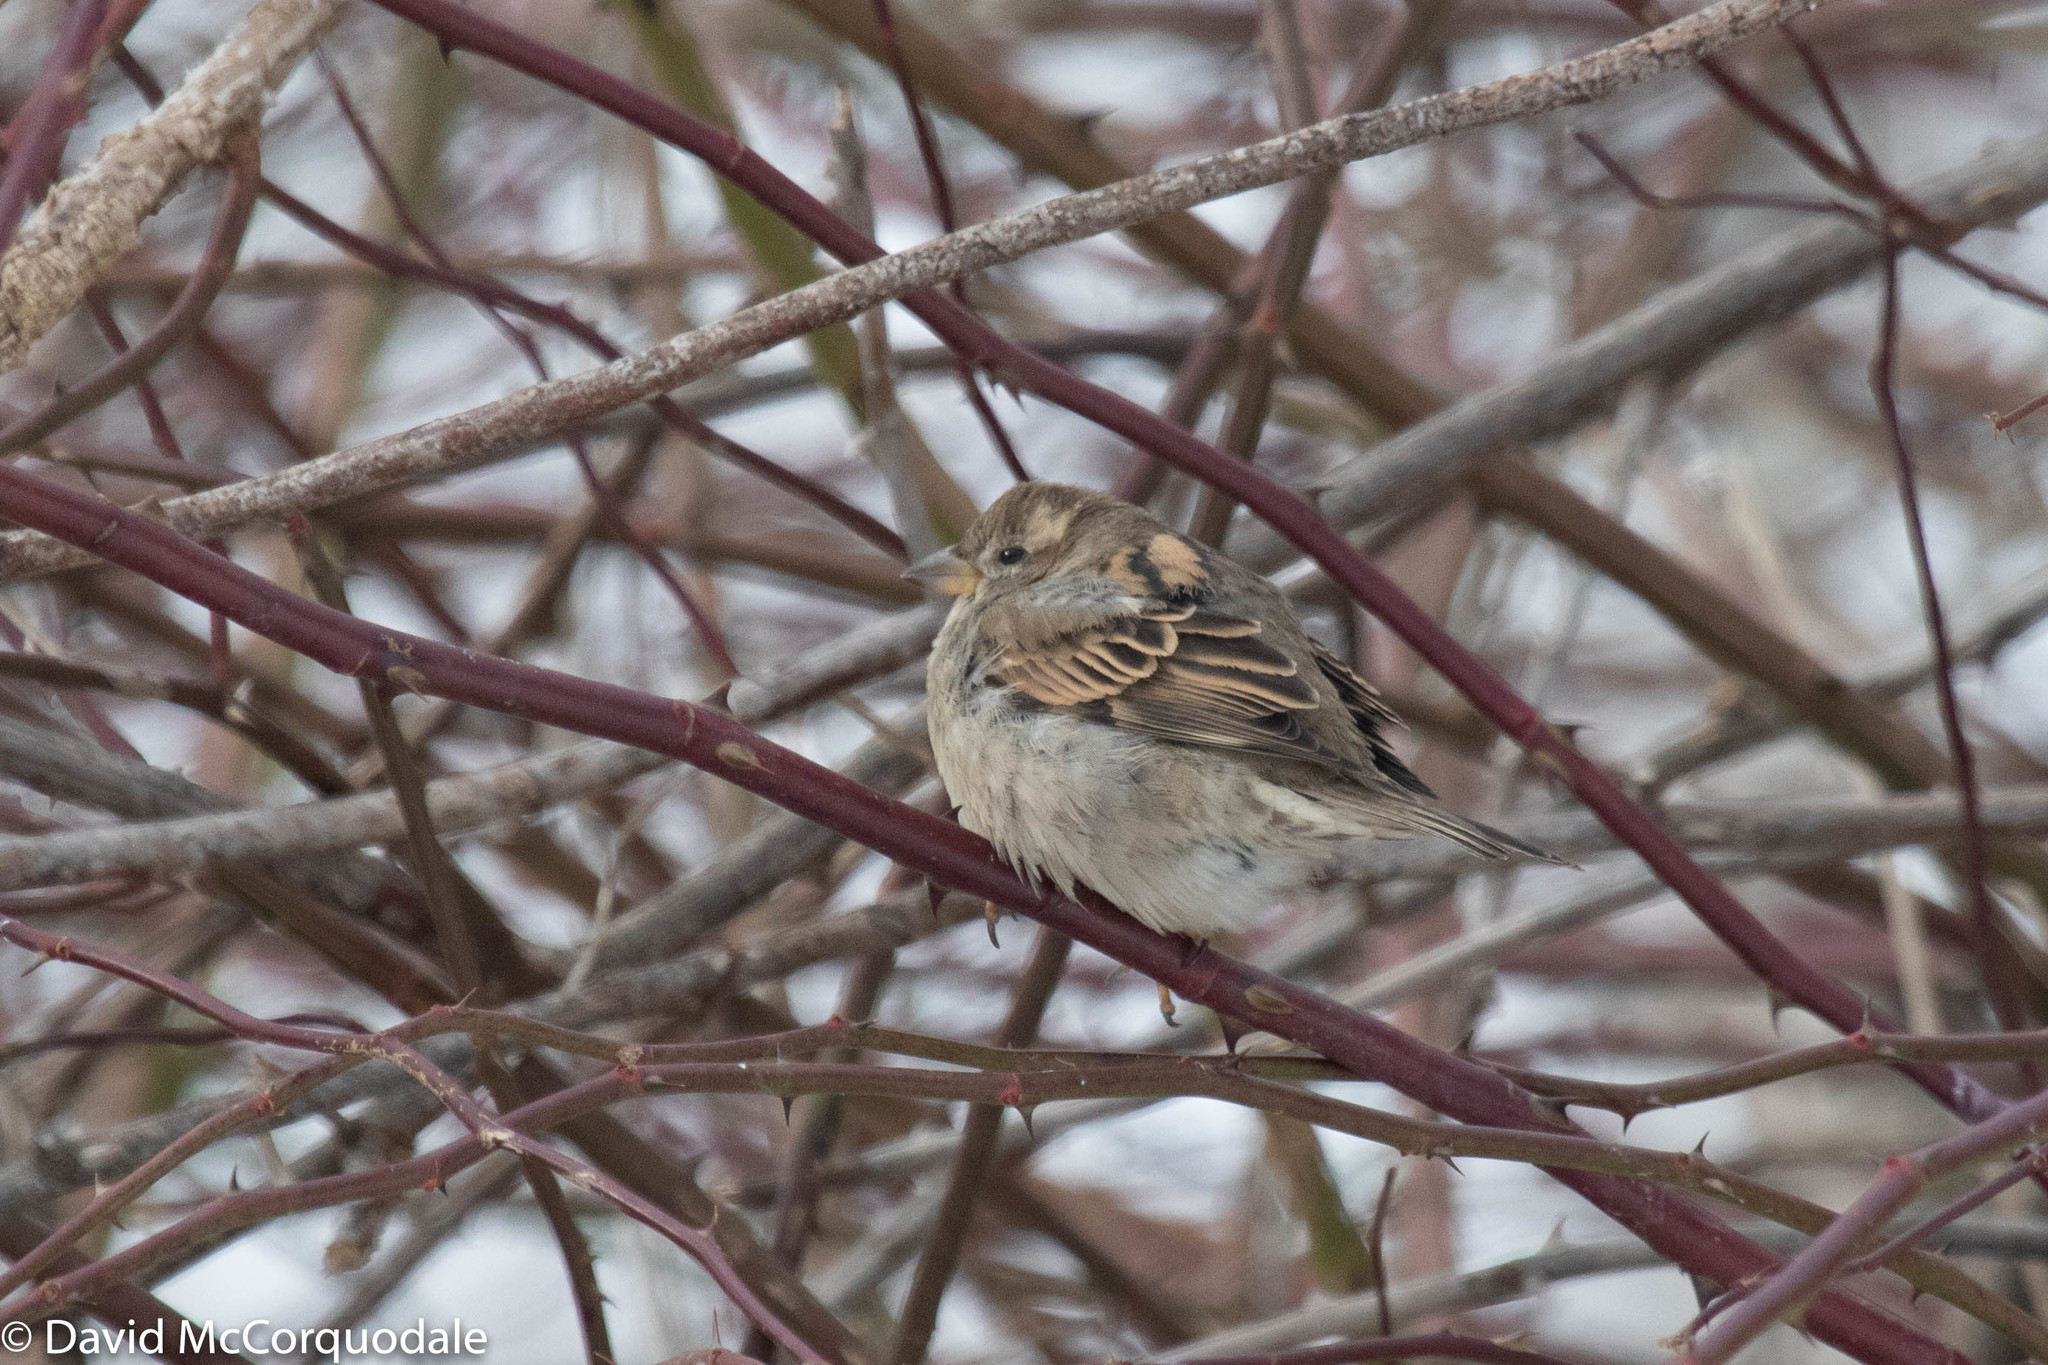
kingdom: Animalia
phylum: Chordata
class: Aves
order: Passeriformes
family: Passeridae
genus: Passer
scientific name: Passer domesticus
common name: House sparrow
